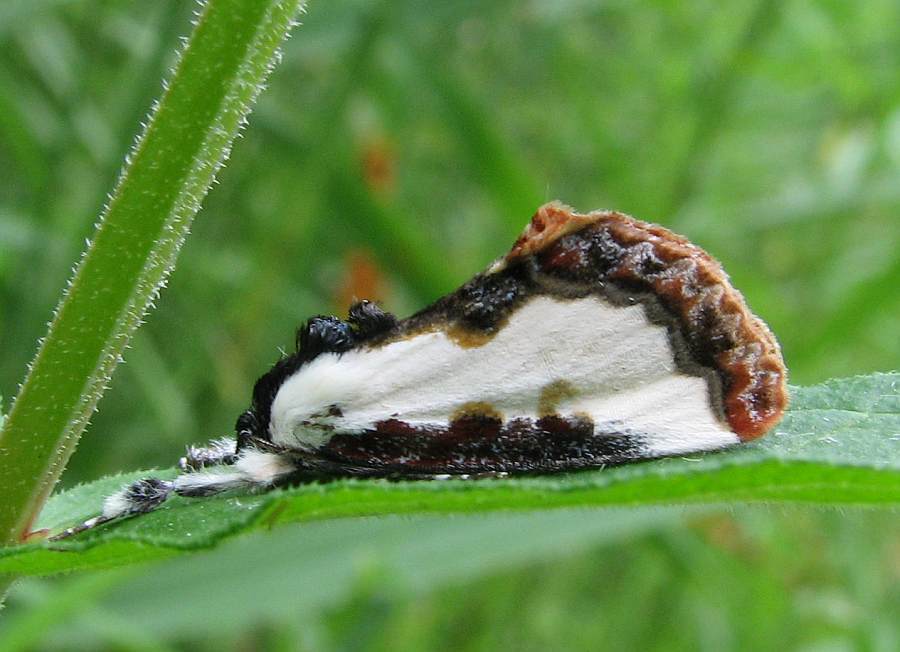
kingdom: Animalia
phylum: Arthropoda
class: Insecta
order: Lepidoptera
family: Noctuidae
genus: Eudryas
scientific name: Eudryas unio
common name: Pearly wood-nymph
